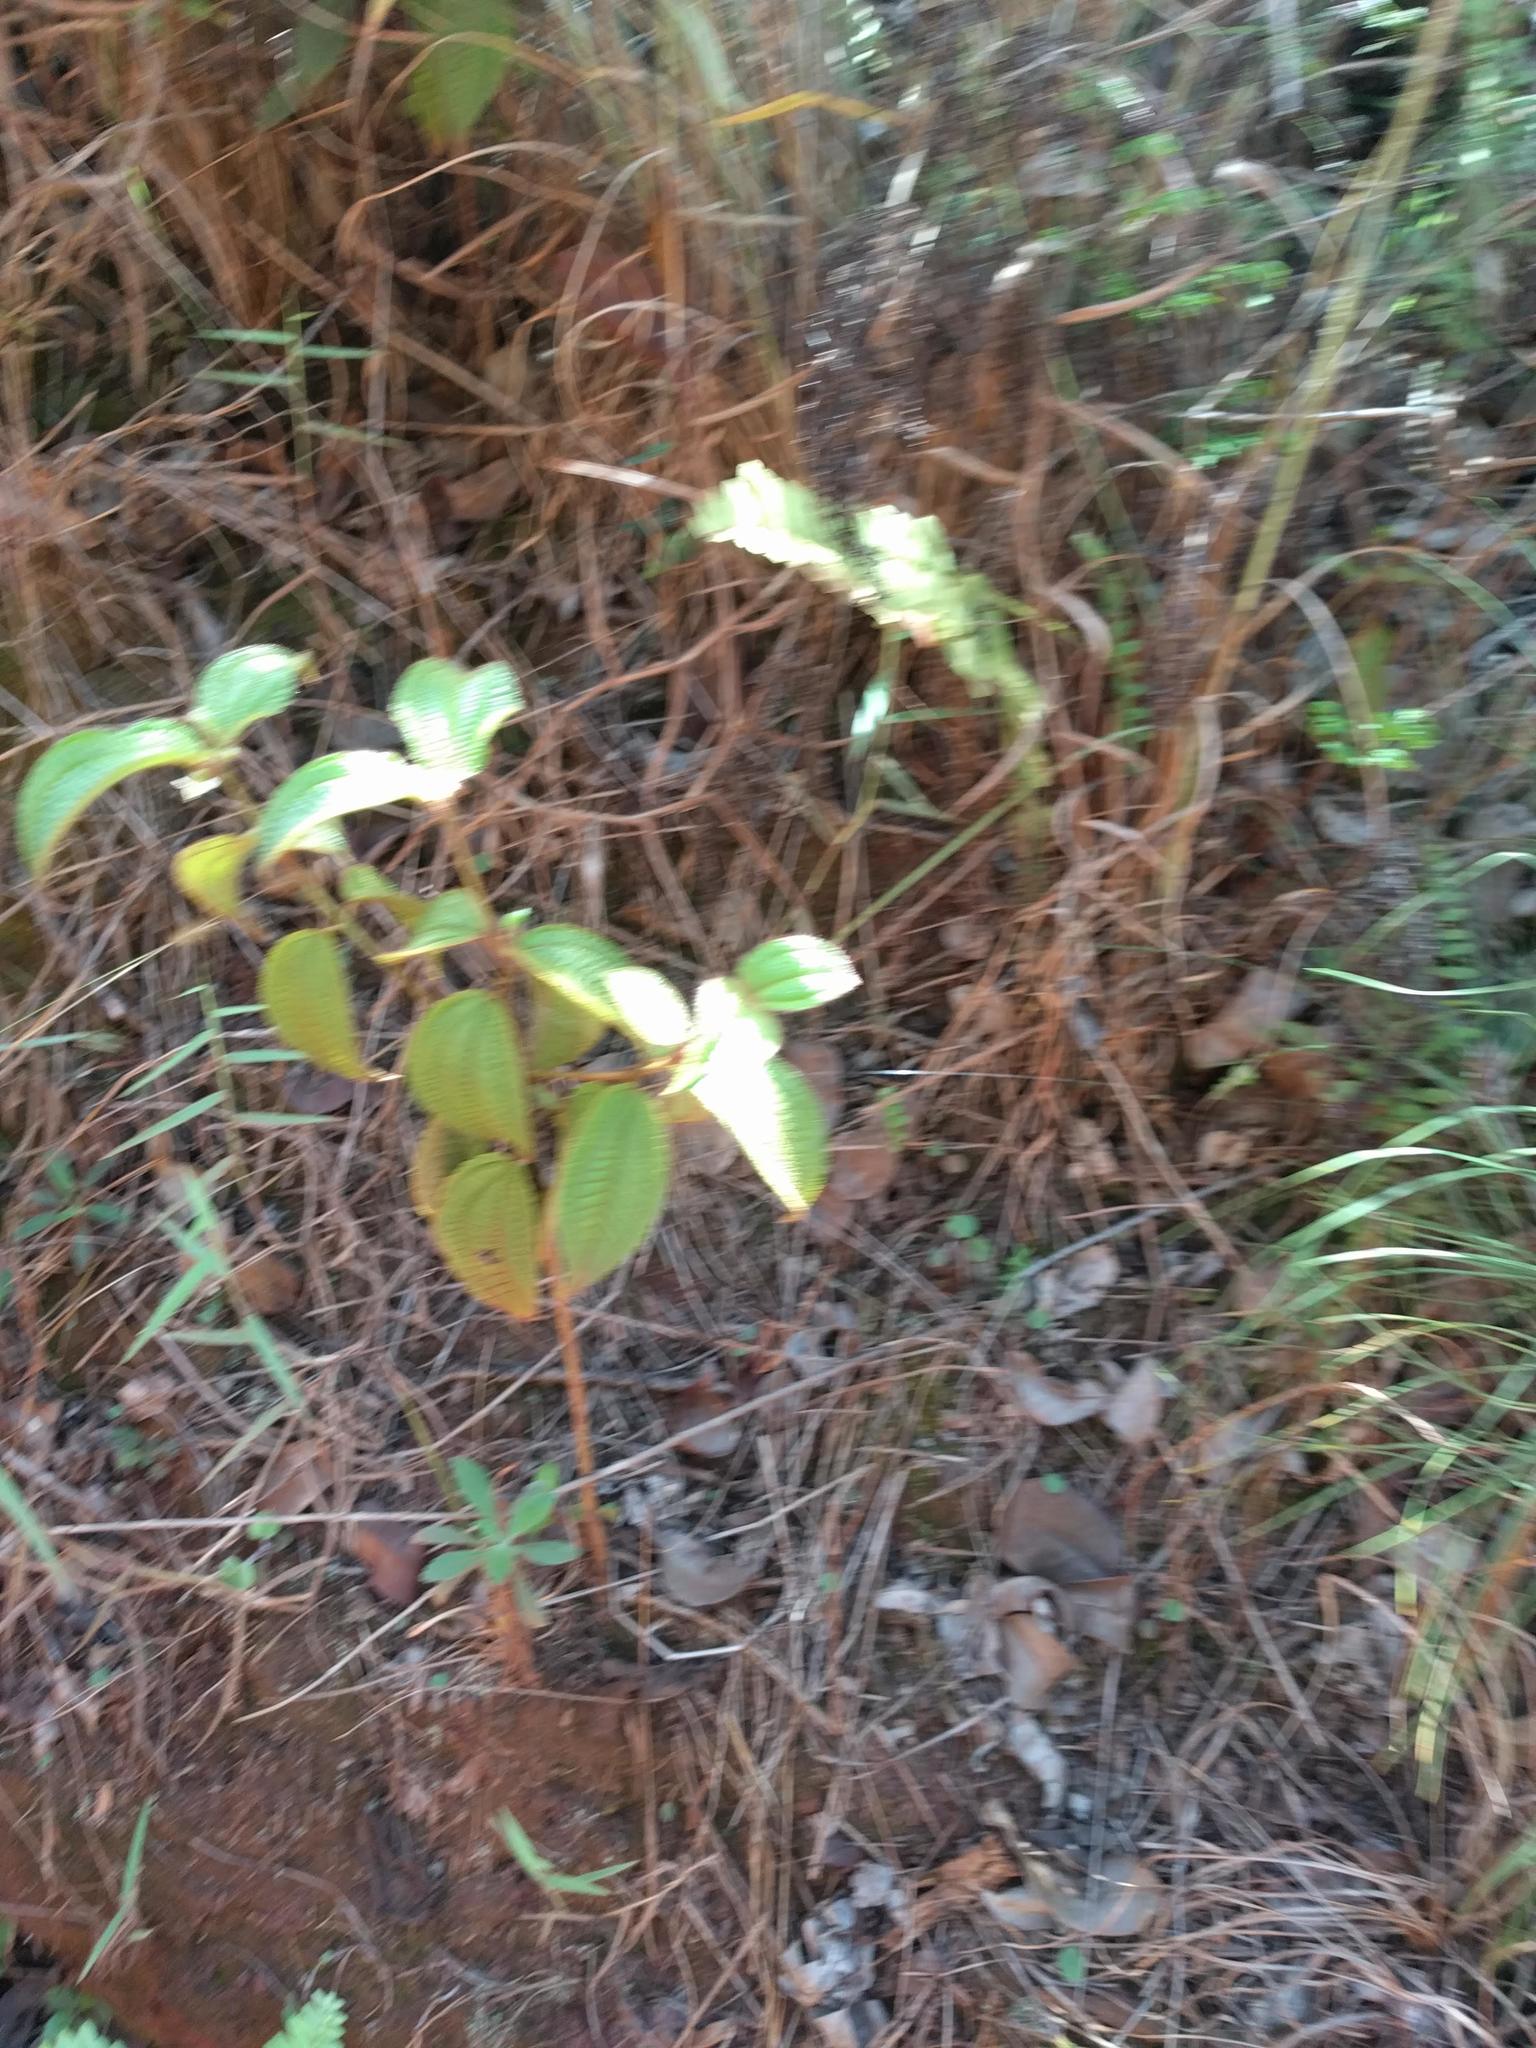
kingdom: Plantae
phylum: Tracheophyta
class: Magnoliopsida
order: Myrtales
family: Melastomataceae
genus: Miconia
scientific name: Miconia crenata
